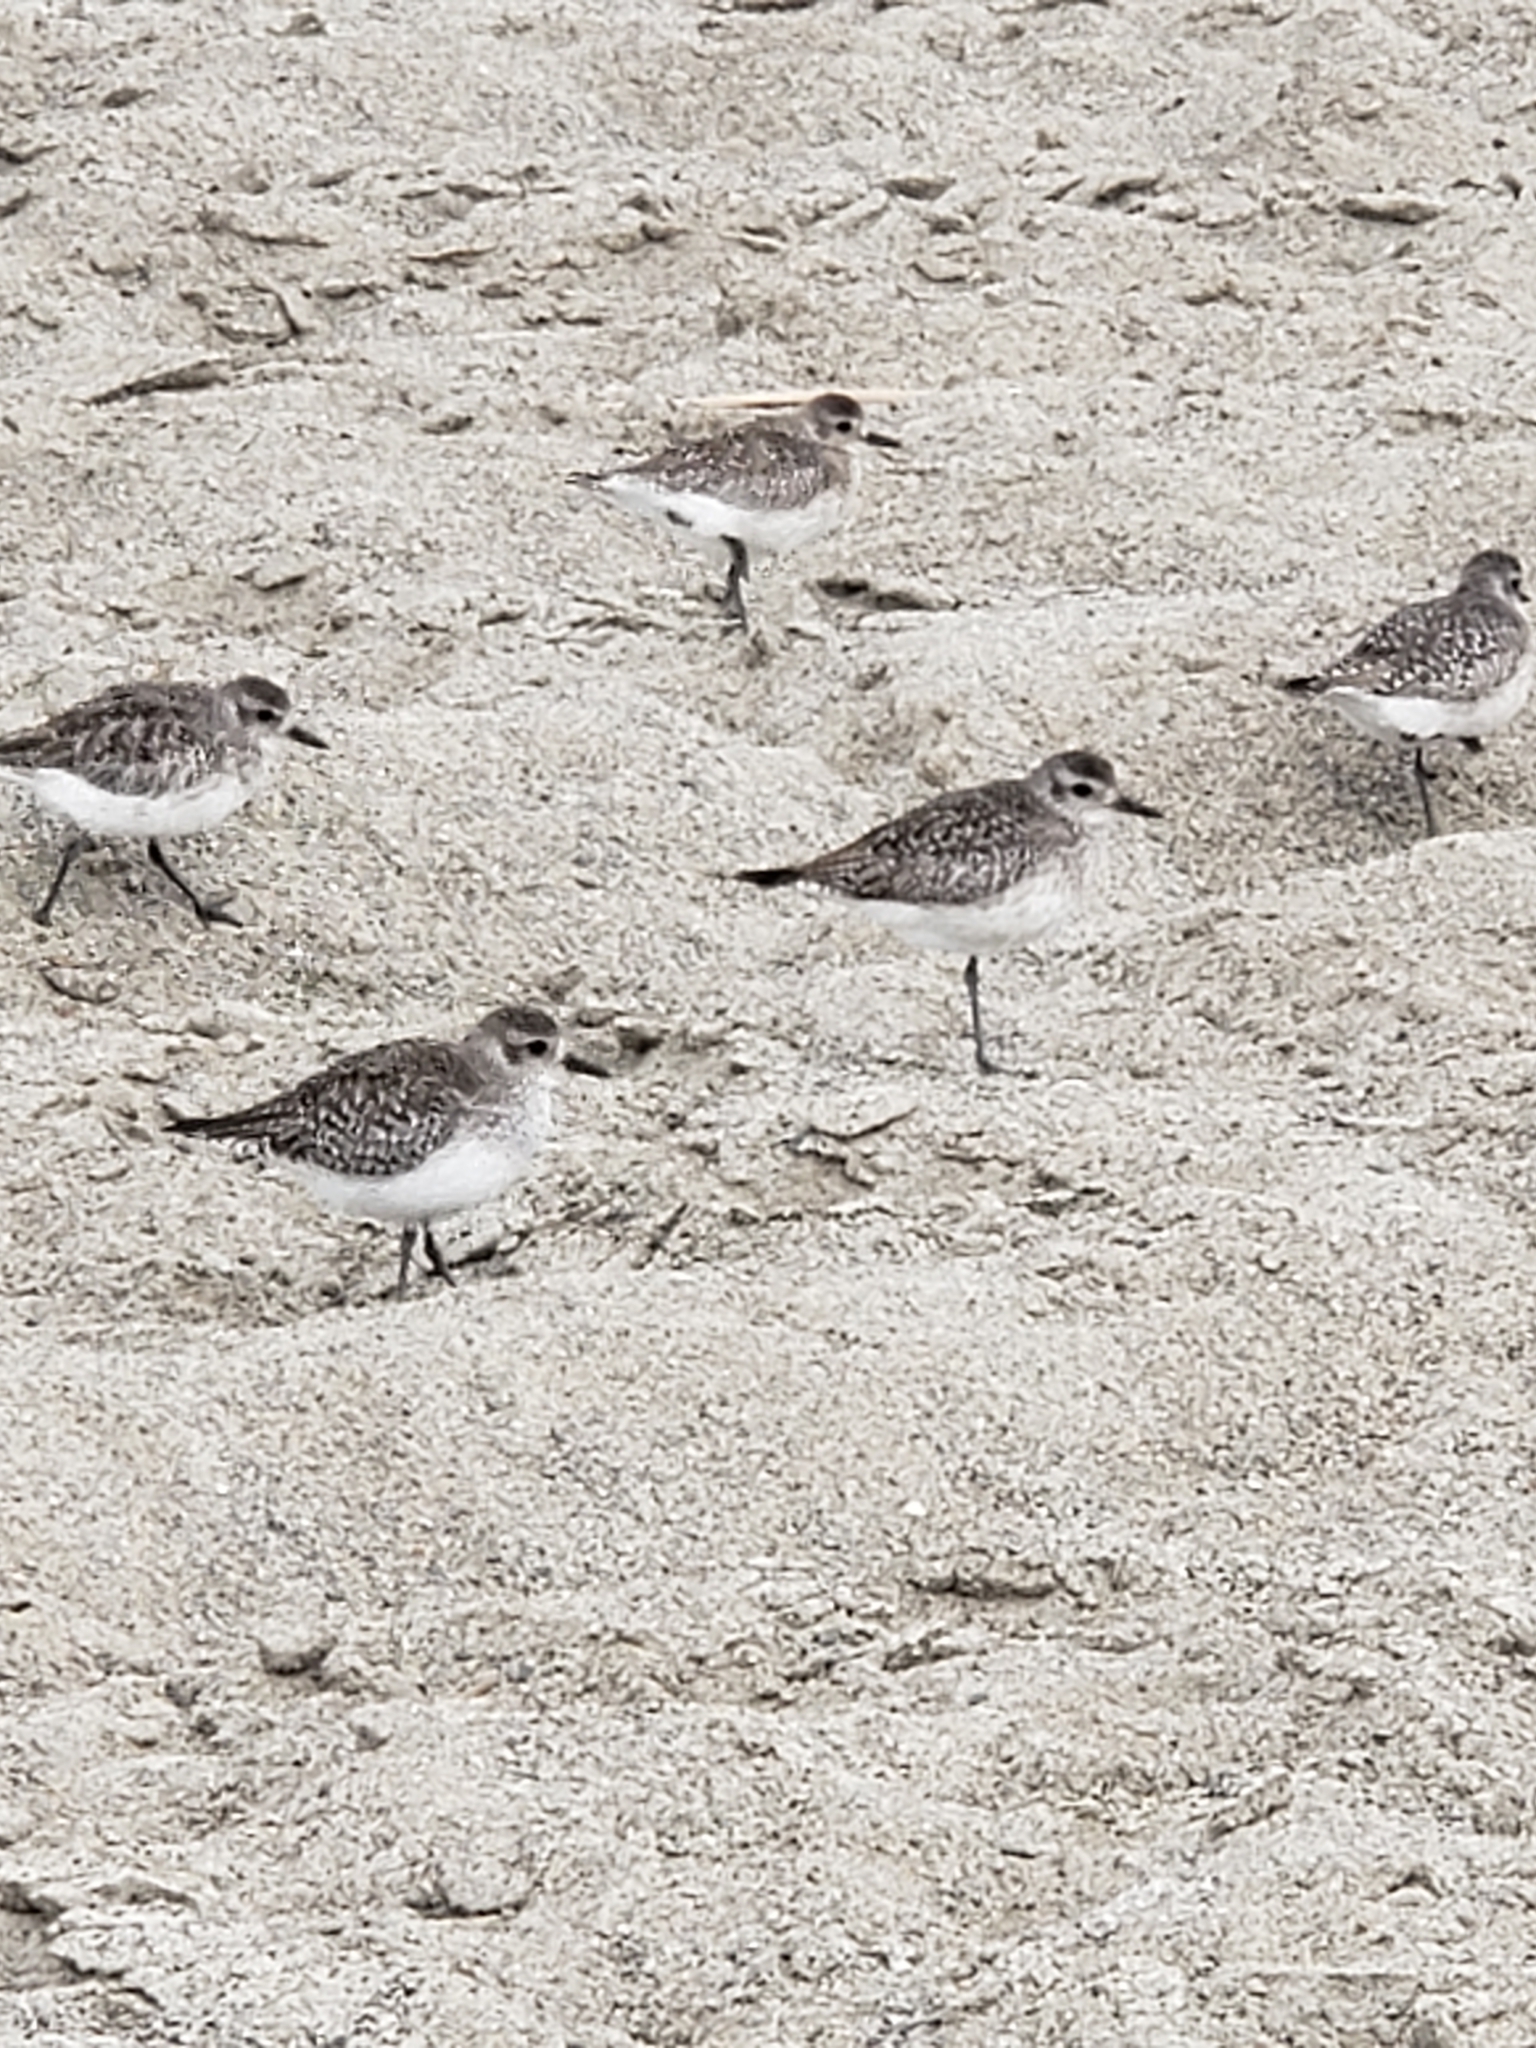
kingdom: Animalia
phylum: Chordata
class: Aves
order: Charadriiformes
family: Charadriidae
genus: Pluvialis
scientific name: Pluvialis squatarola
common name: Grey plover
